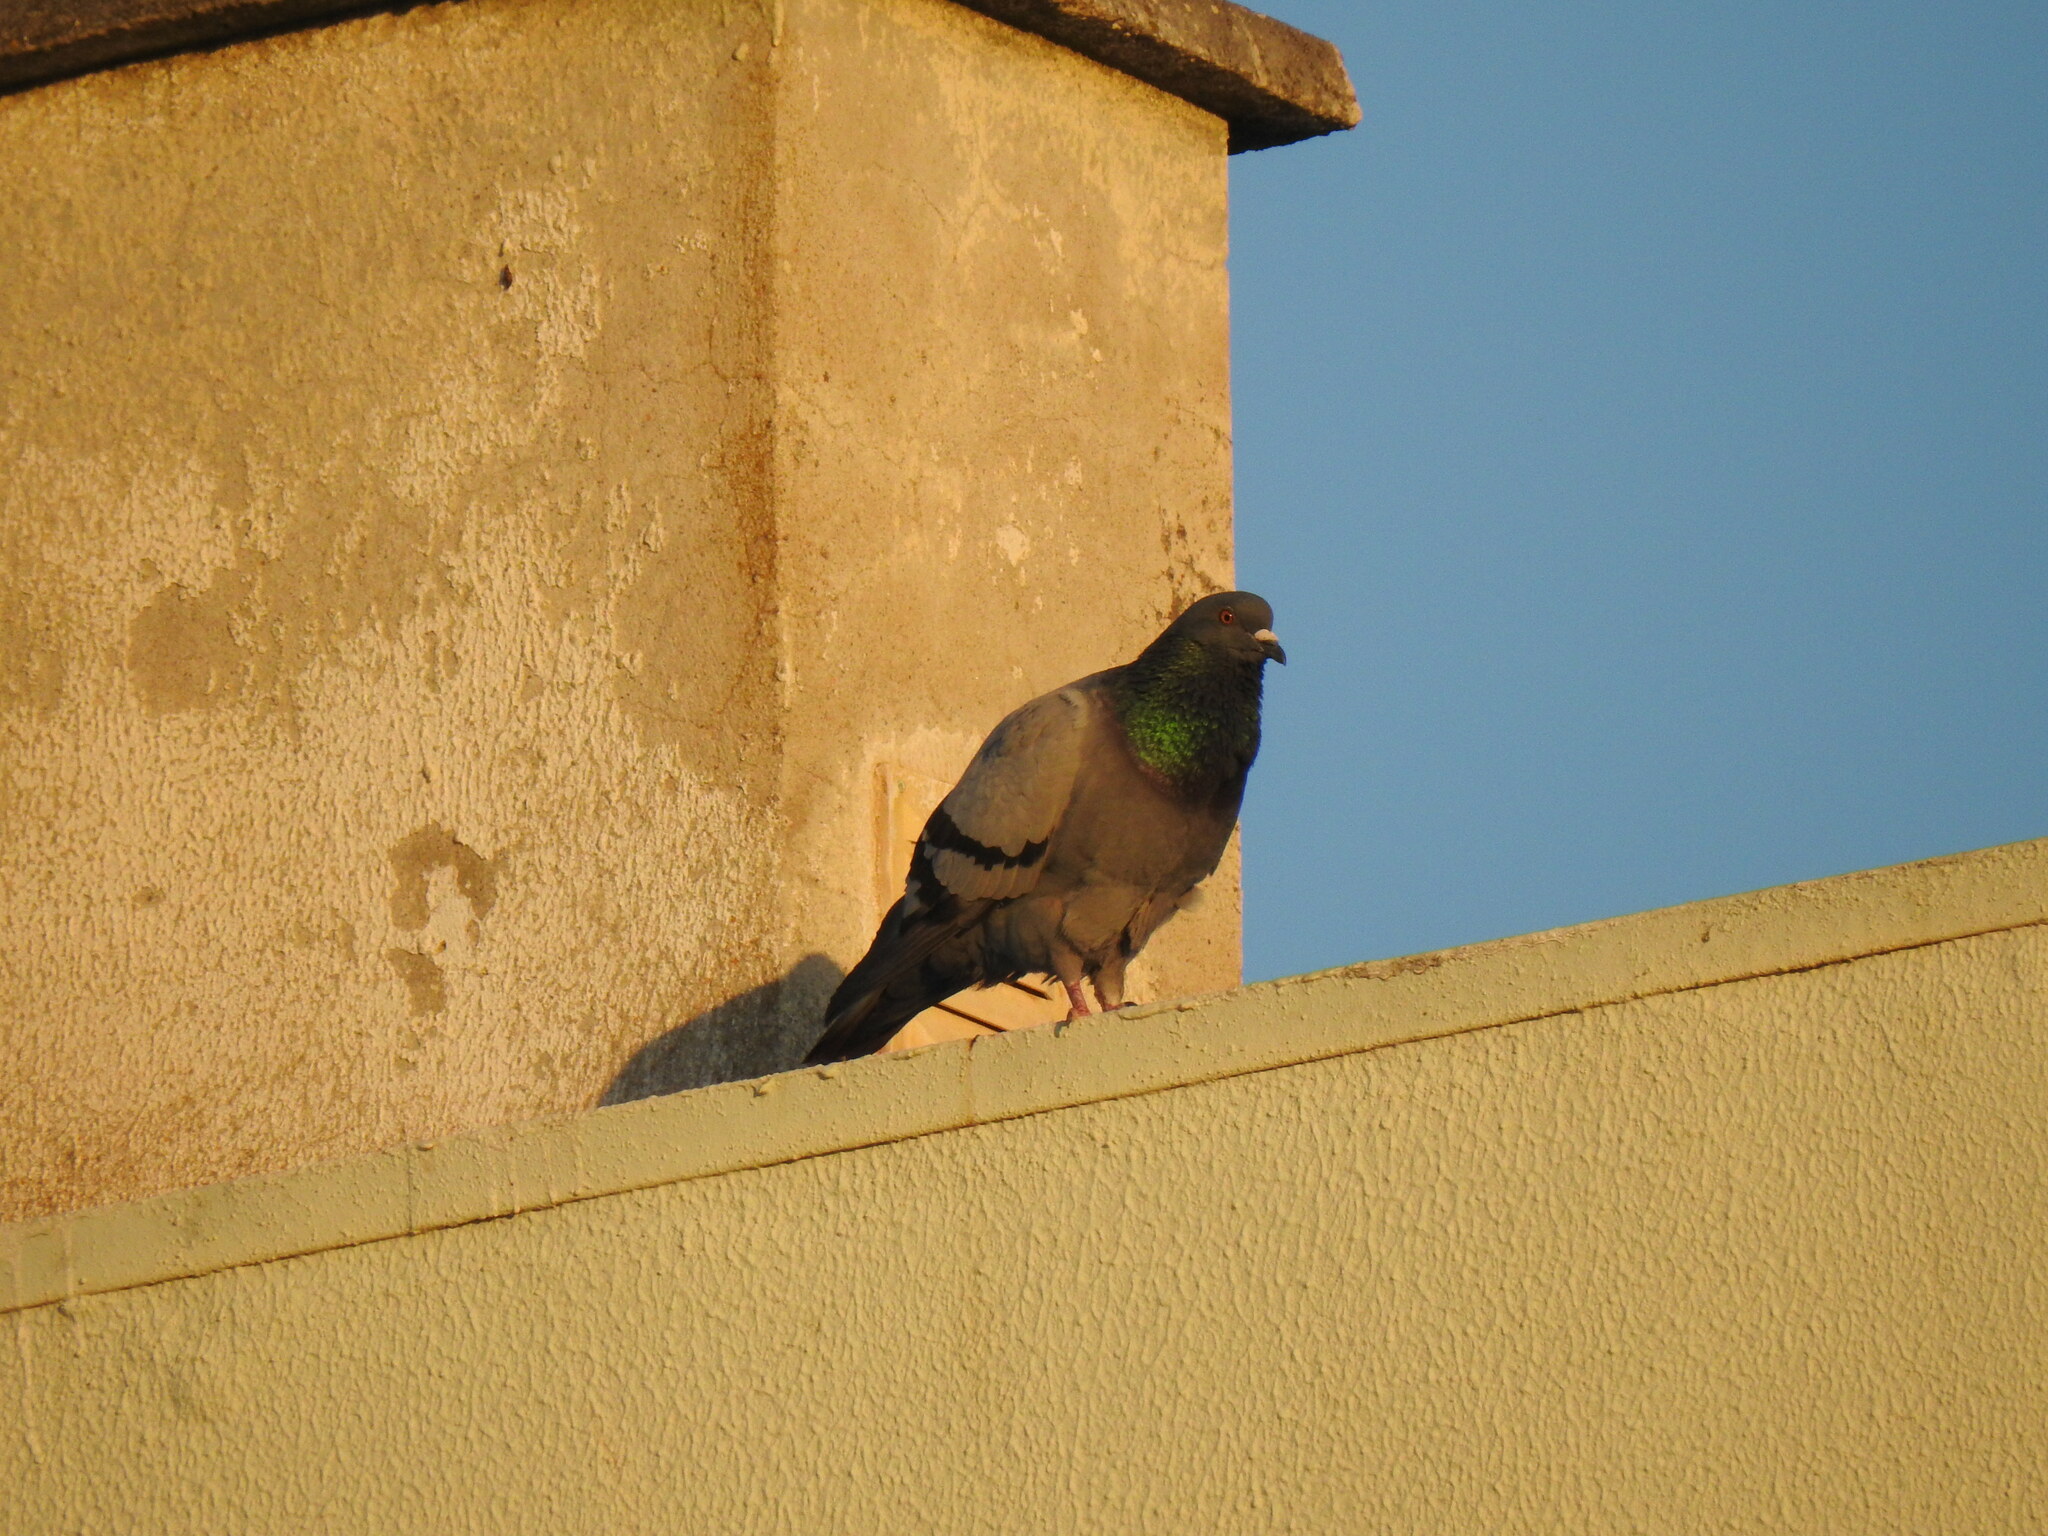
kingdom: Animalia
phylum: Chordata
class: Aves
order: Columbiformes
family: Columbidae
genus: Columba
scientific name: Columba livia
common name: Rock pigeon
